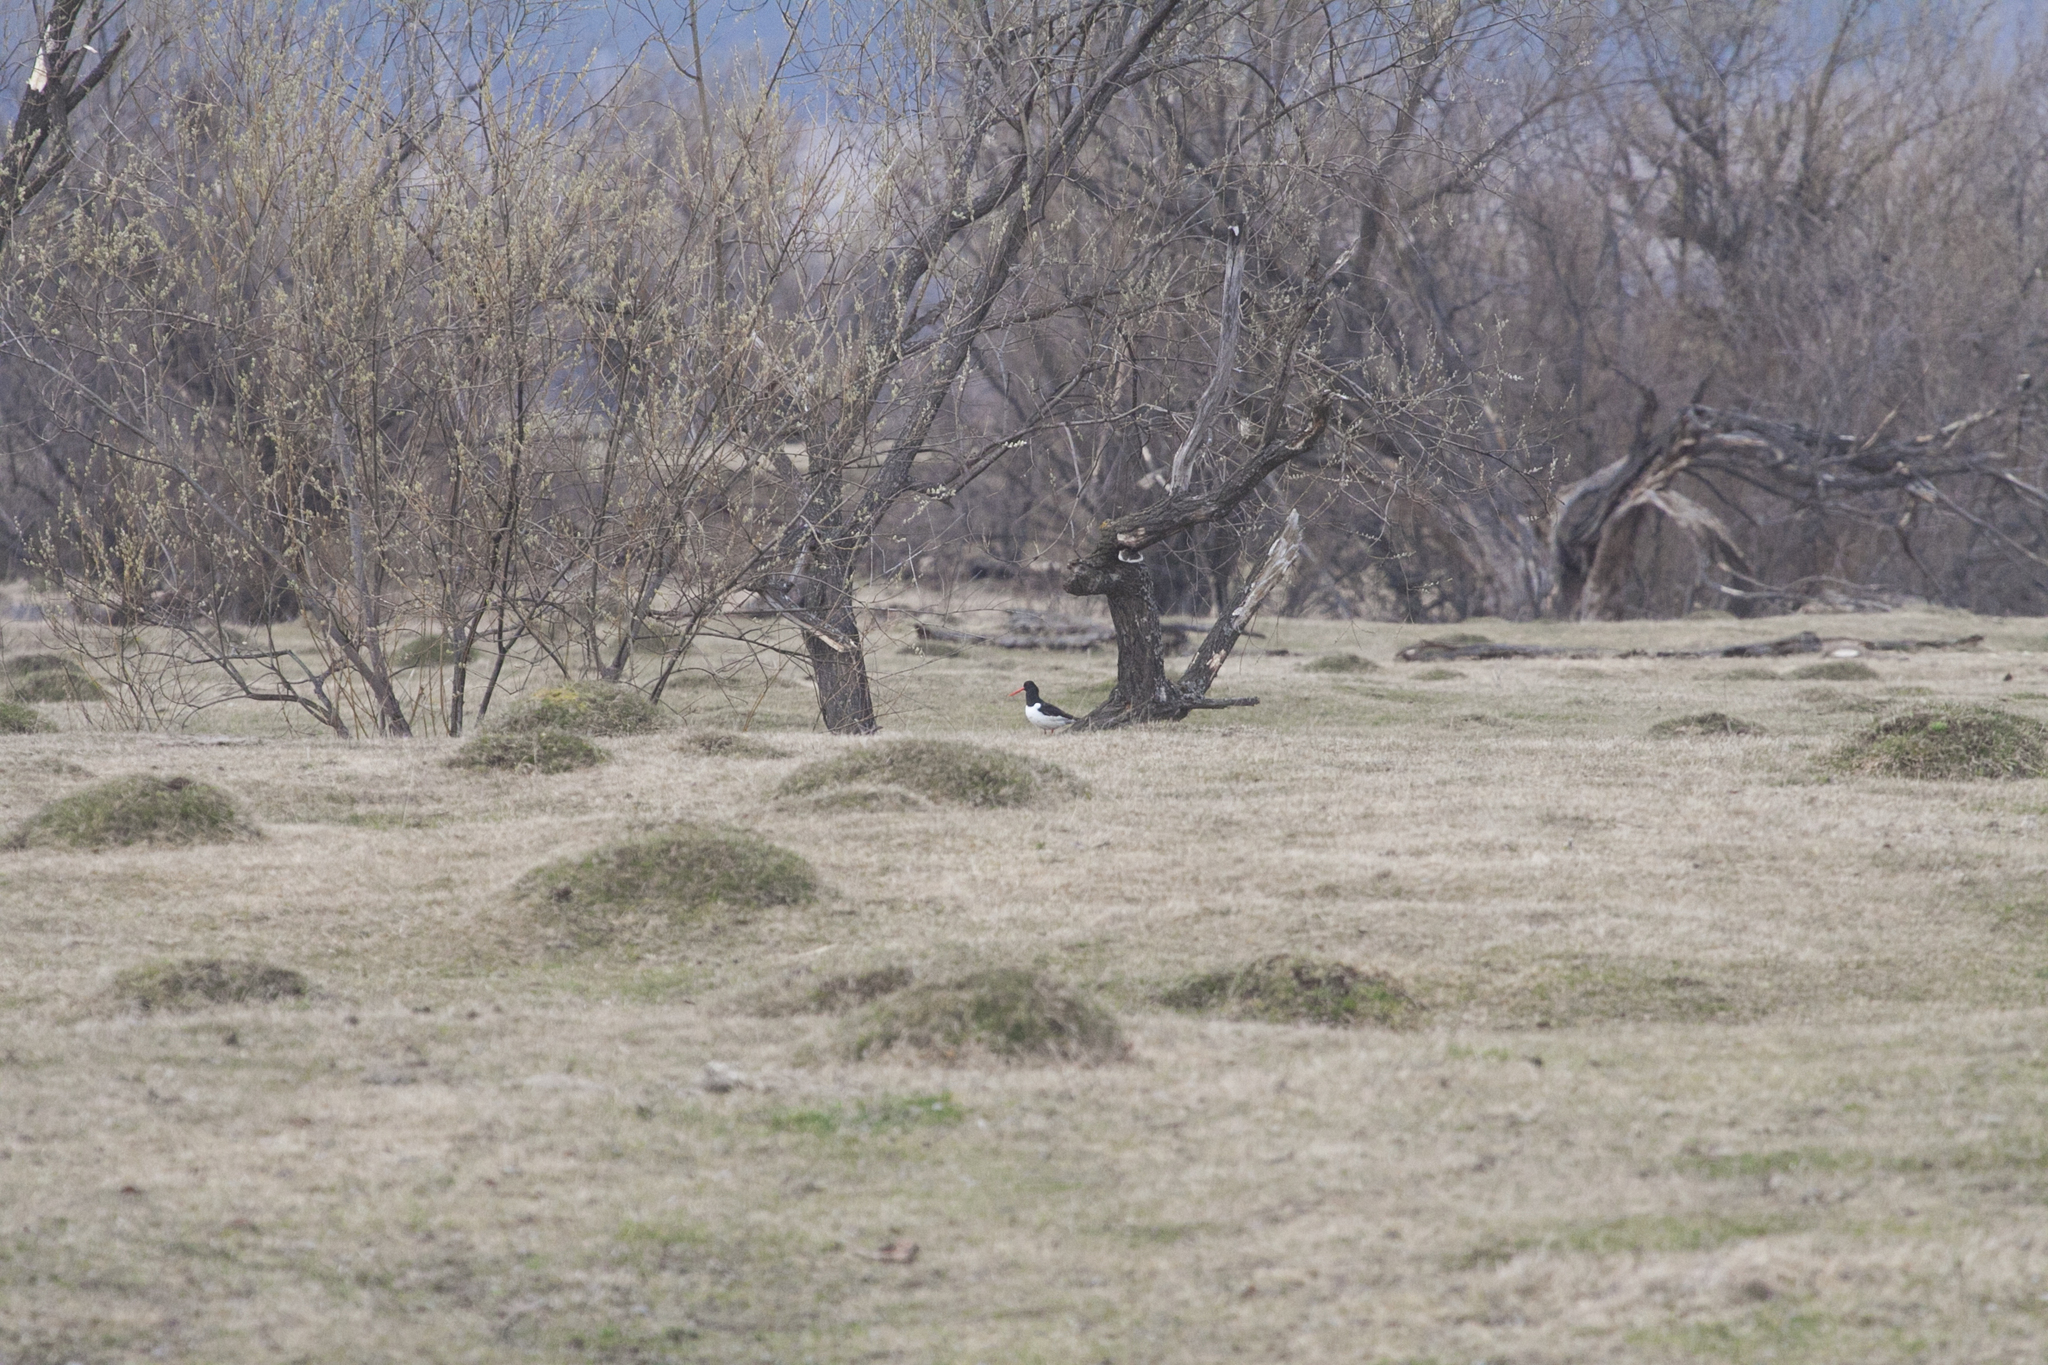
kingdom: Animalia
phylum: Chordata
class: Aves
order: Charadriiformes
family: Haematopodidae
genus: Haematopus
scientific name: Haematopus ostralegus
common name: Eurasian oystercatcher
